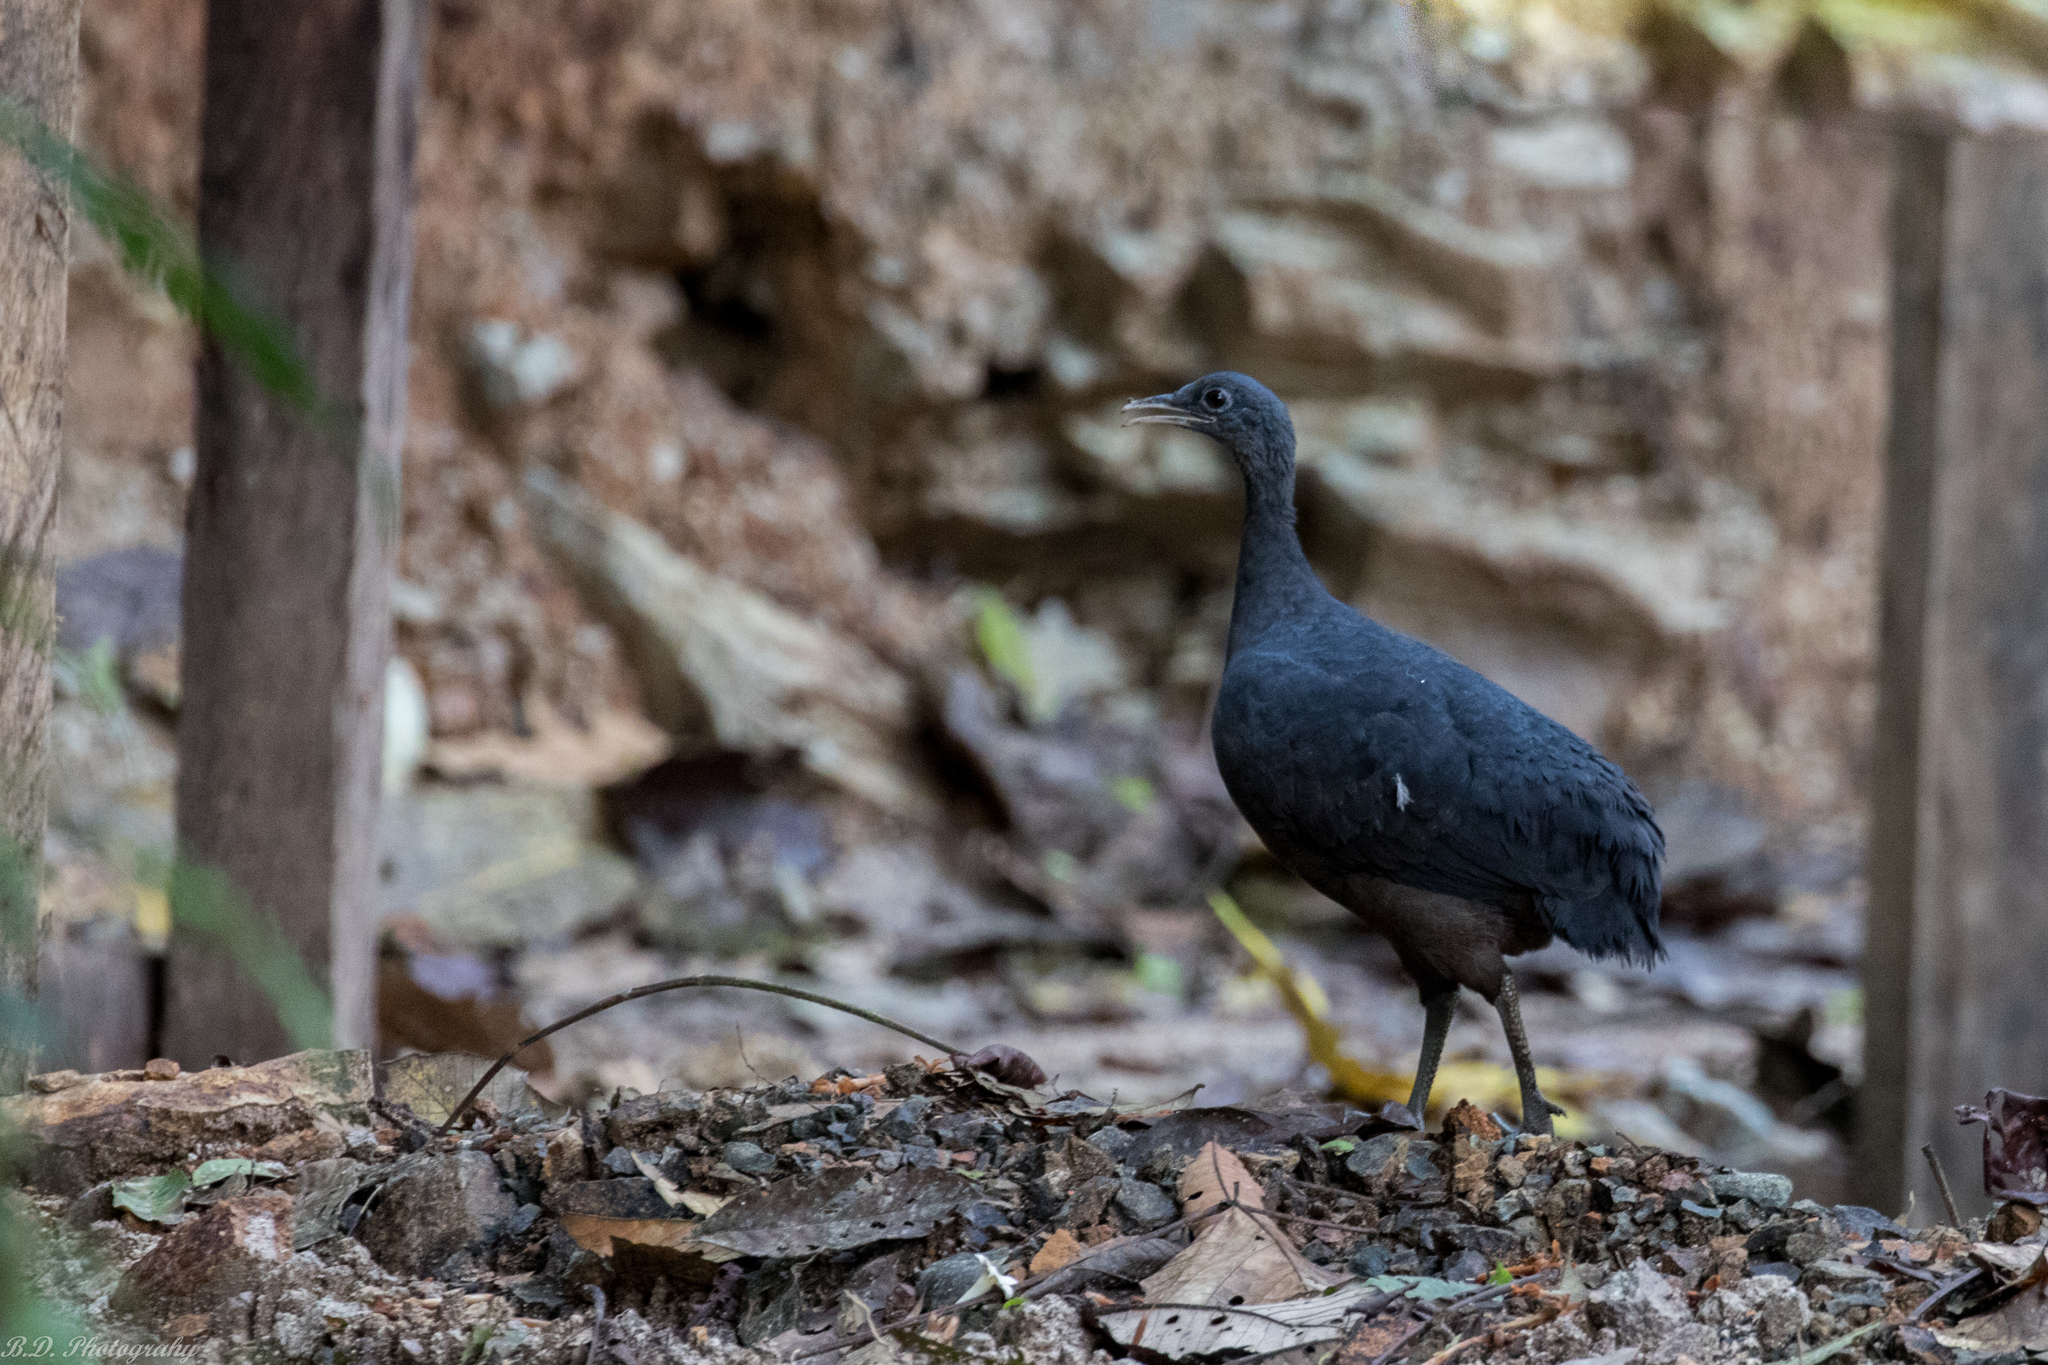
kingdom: Animalia
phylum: Chordata
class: Aves
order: Tinamiformes
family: Tinamidae
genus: Tinamus
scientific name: Tinamus osgoodi
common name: Black tinamou
